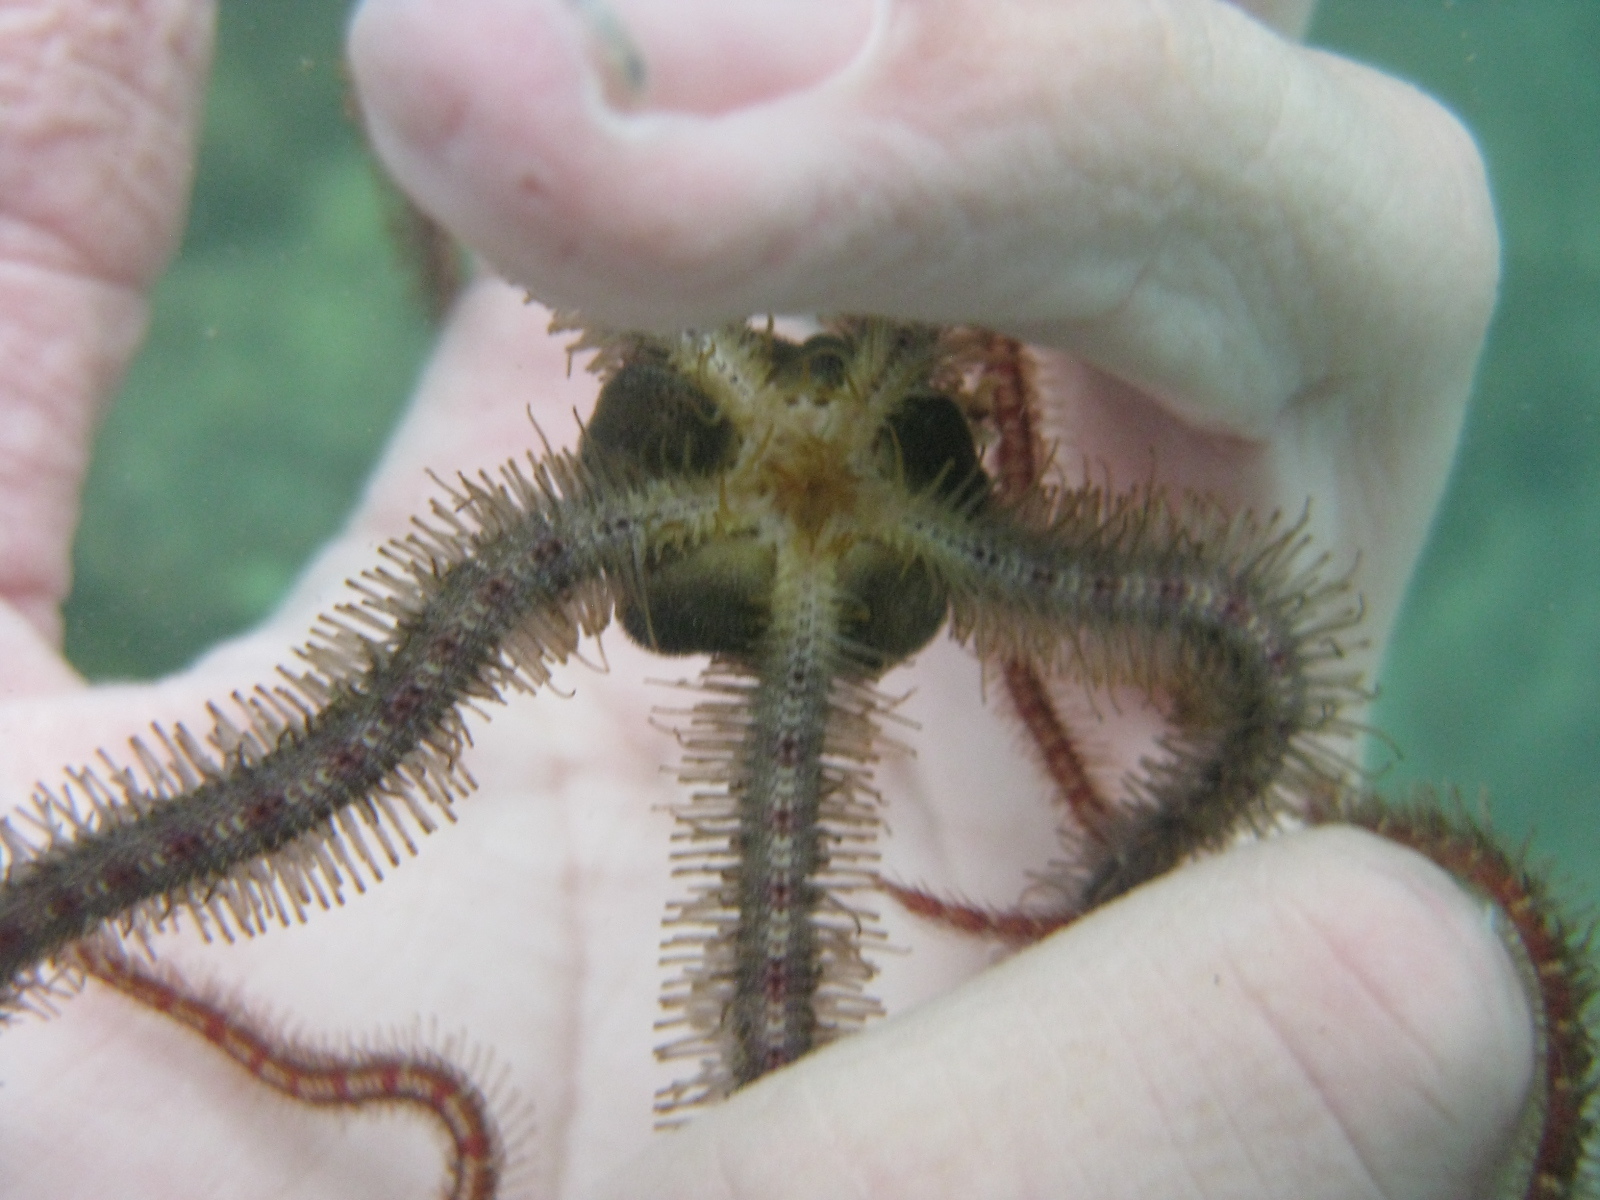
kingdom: Animalia
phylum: Echinodermata
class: Ophiuroidea
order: Amphilepidida
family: Ophiotrichidae
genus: Macrophiothrix
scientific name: Macrophiothrix oliveri
